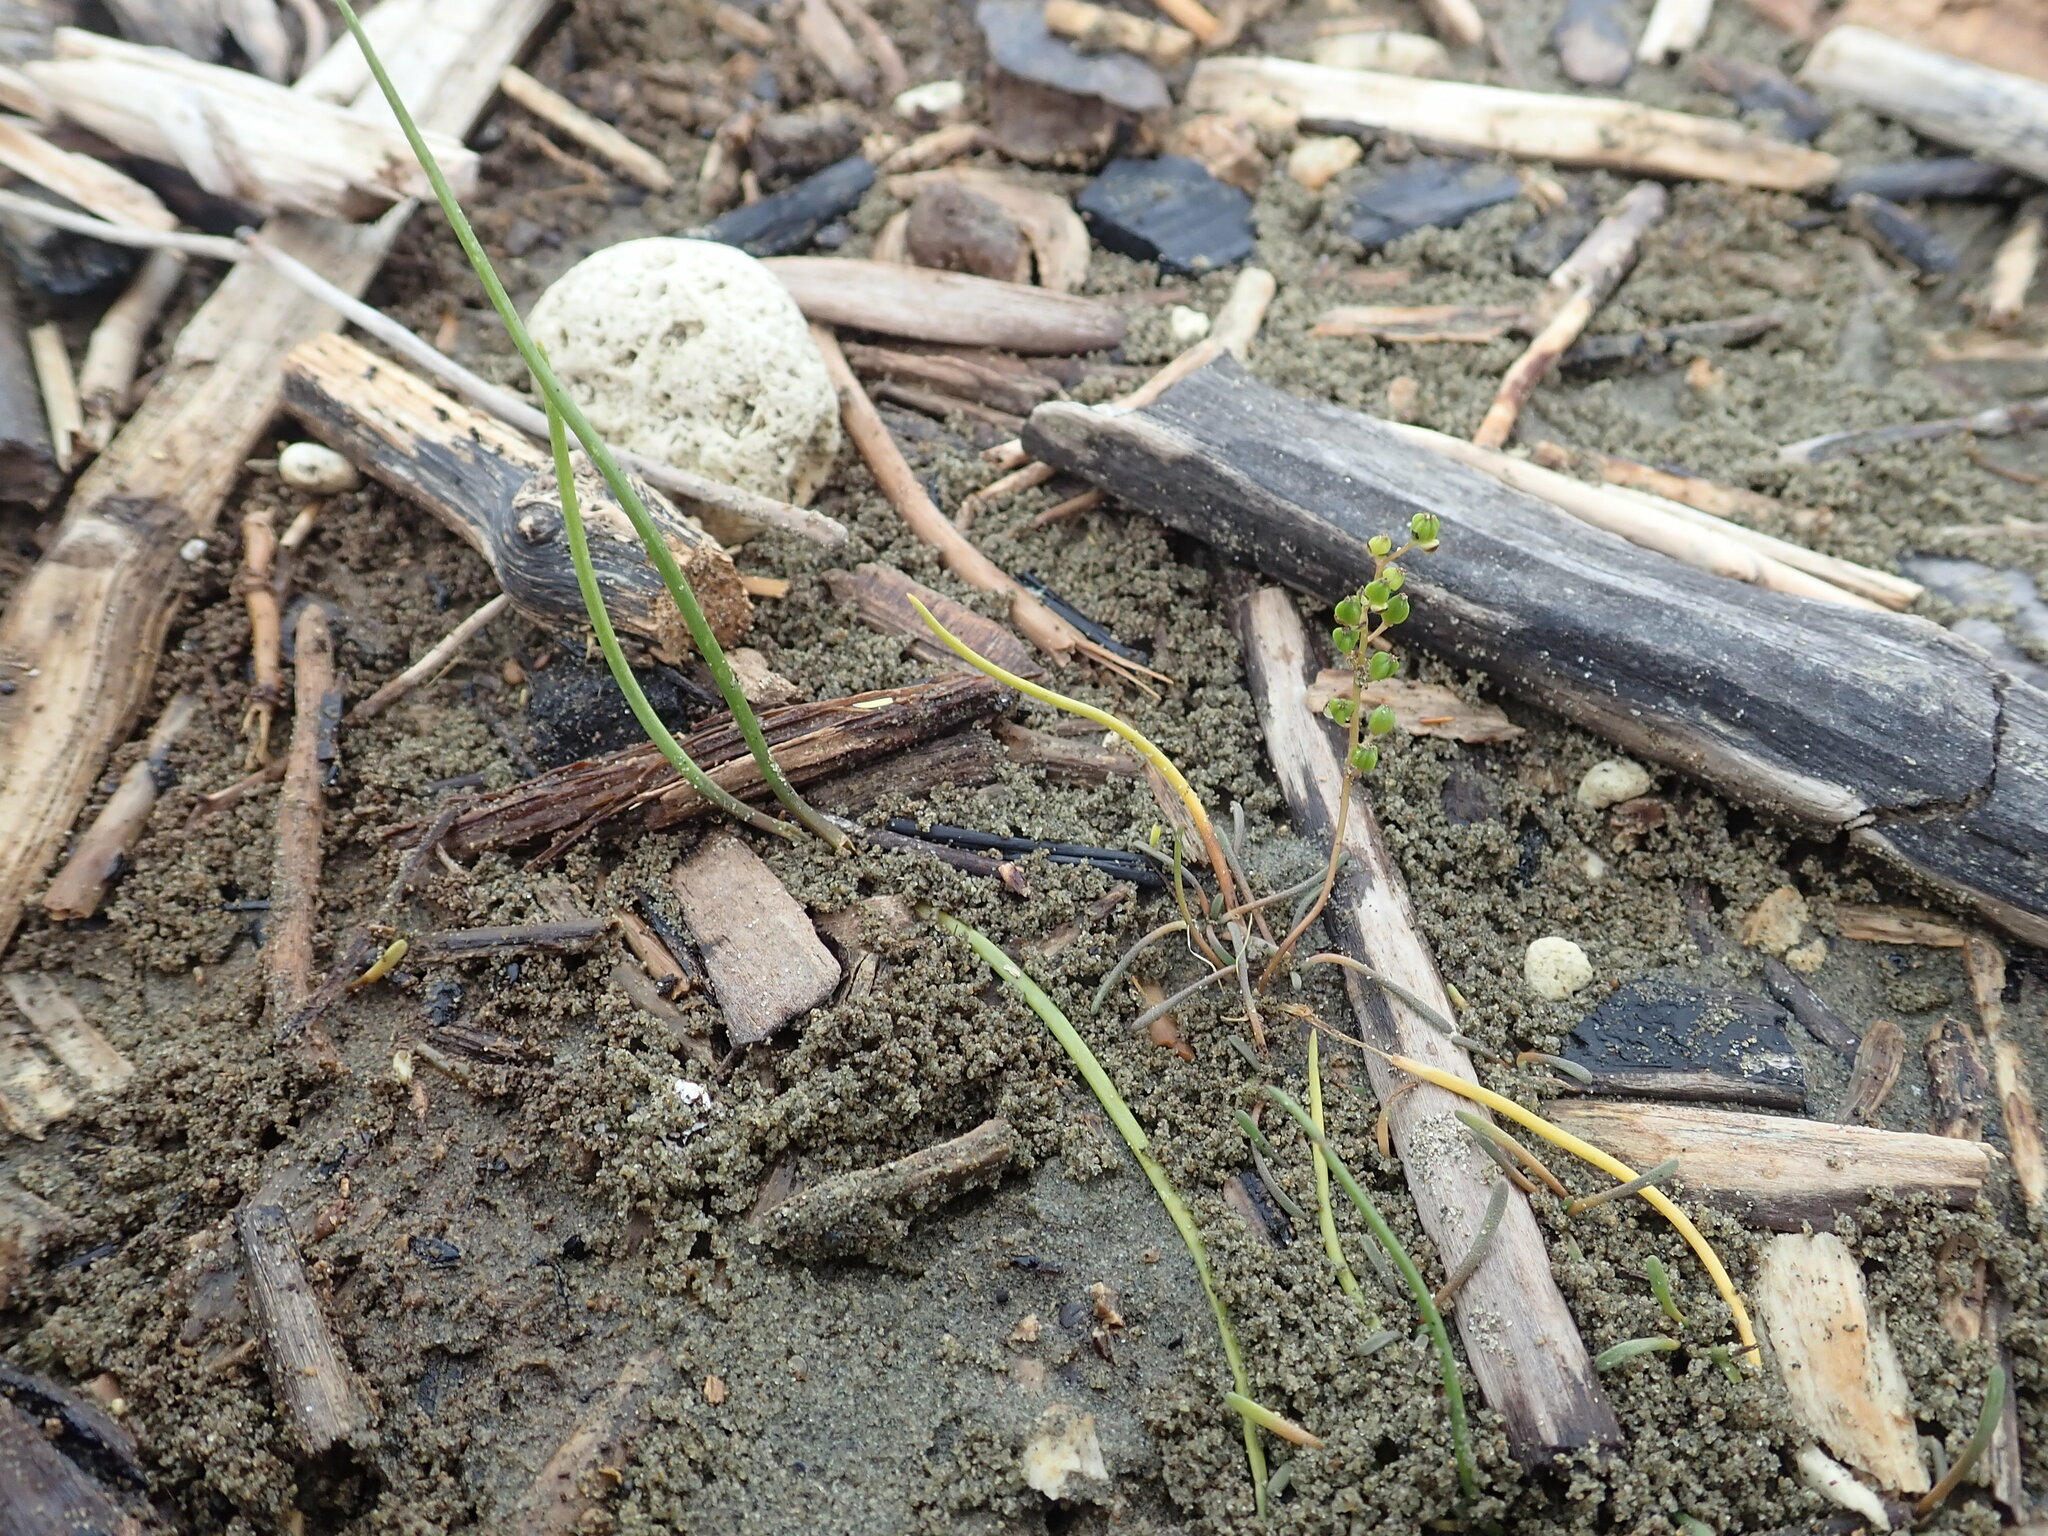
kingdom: Plantae
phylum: Tracheophyta
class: Liliopsida
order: Alismatales
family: Juncaginaceae
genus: Triglochin
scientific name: Triglochin striata
